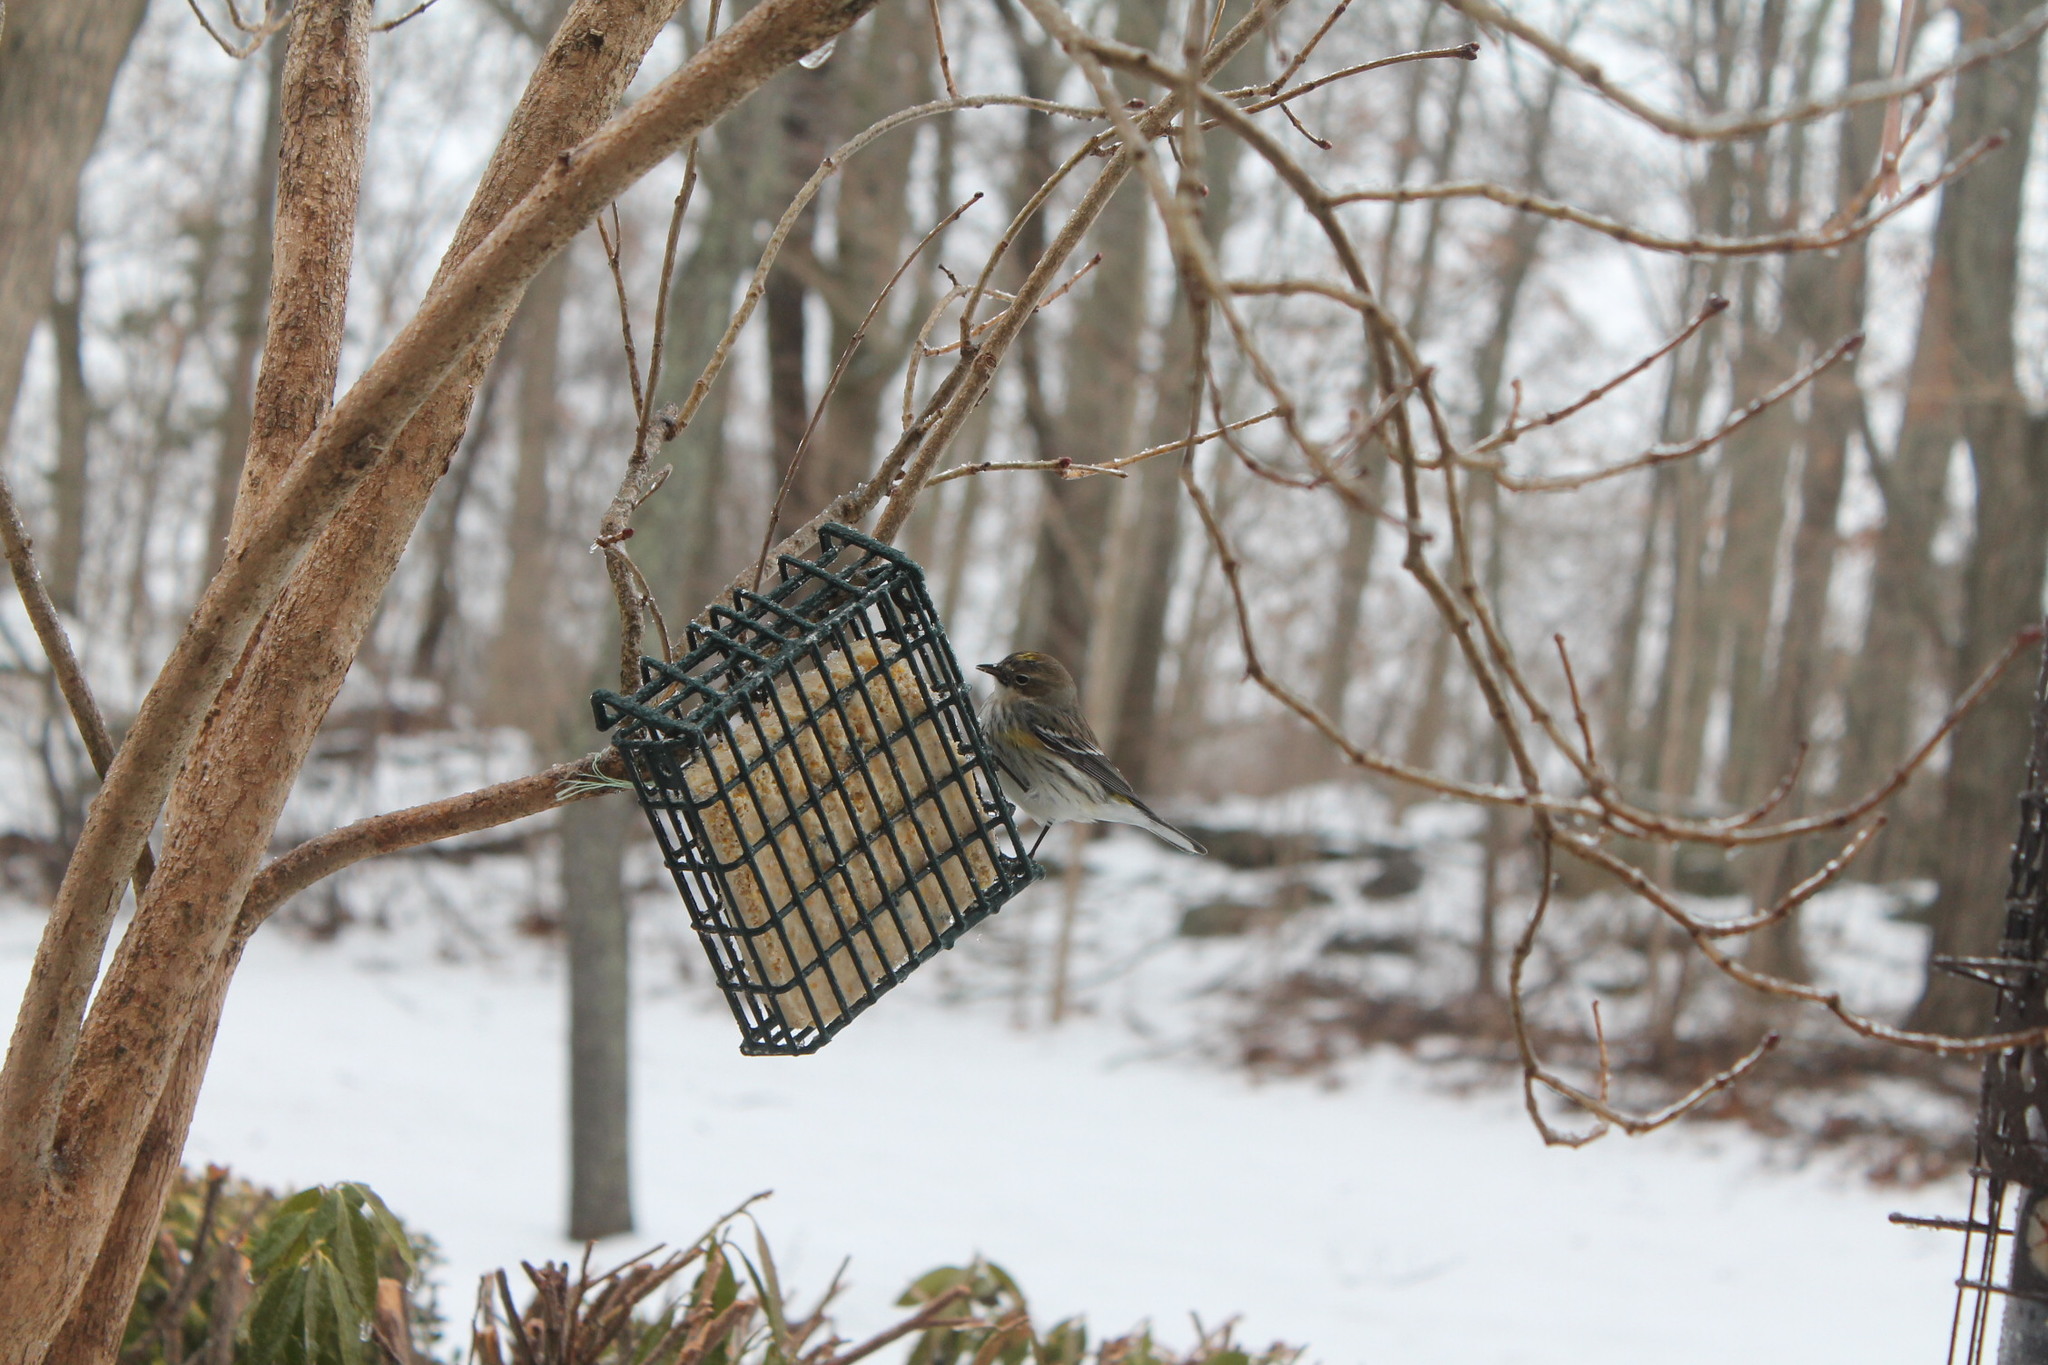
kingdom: Animalia
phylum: Chordata
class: Aves
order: Passeriformes
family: Parulidae
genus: Setophaga
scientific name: Setophaga coronata
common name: Myrtle warbler
